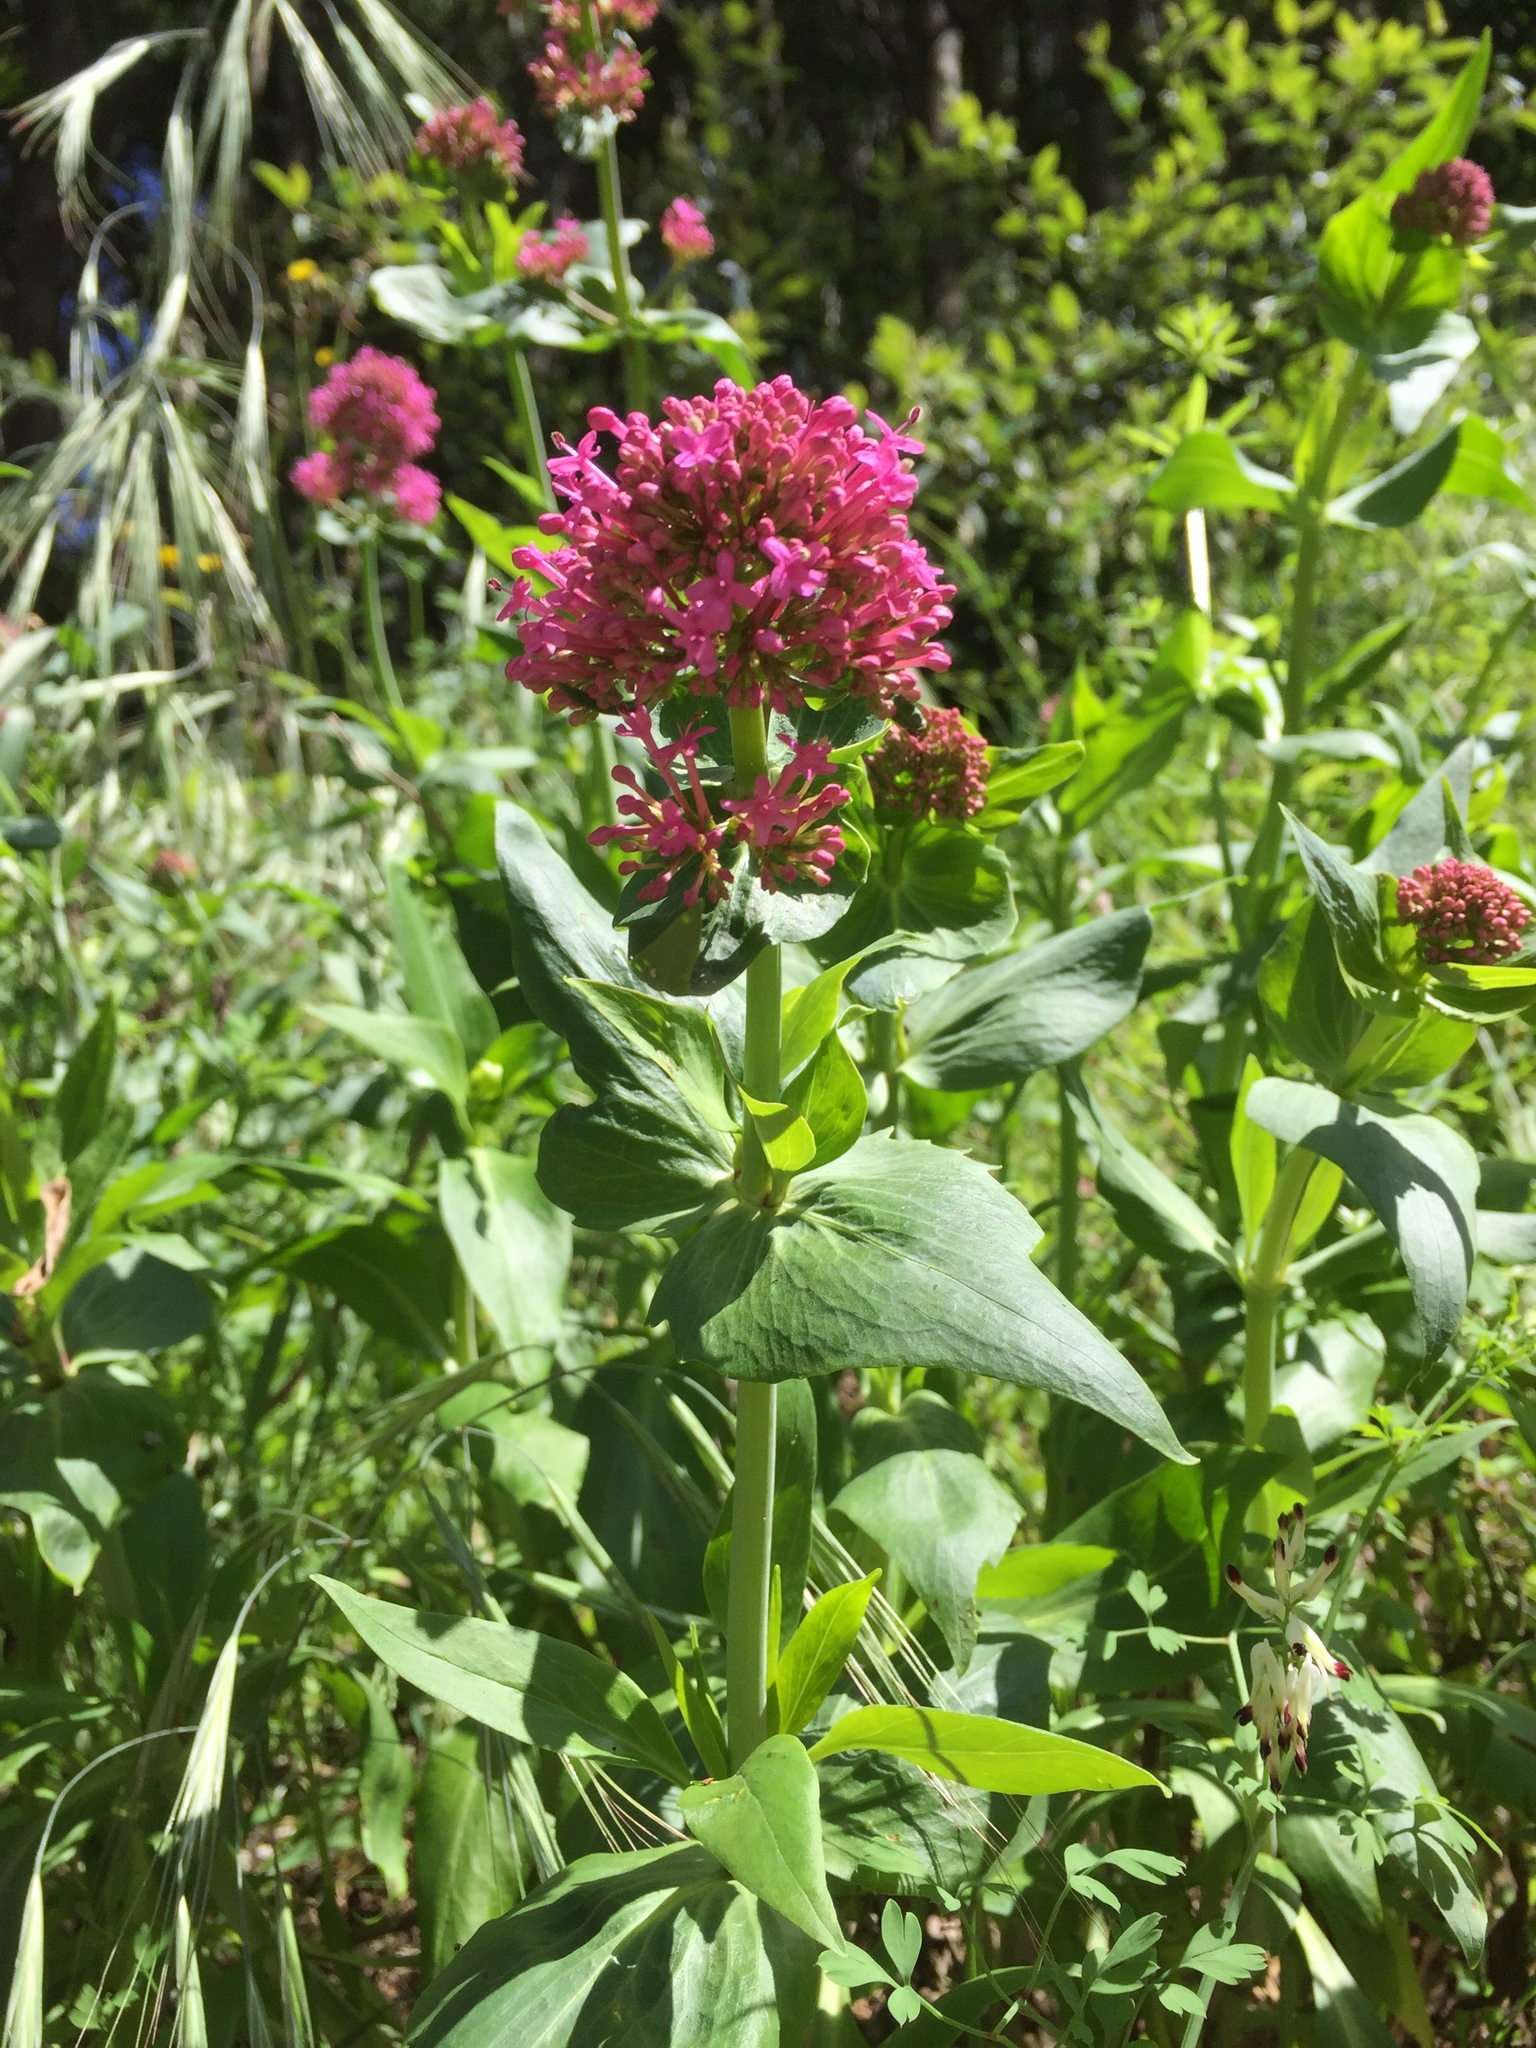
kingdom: Plantae
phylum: Tracheophyta
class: Magnoliopsida
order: Dipsacales
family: Caprifoliaceae
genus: Centranthus
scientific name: Centranthus ruber
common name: Red valerian
